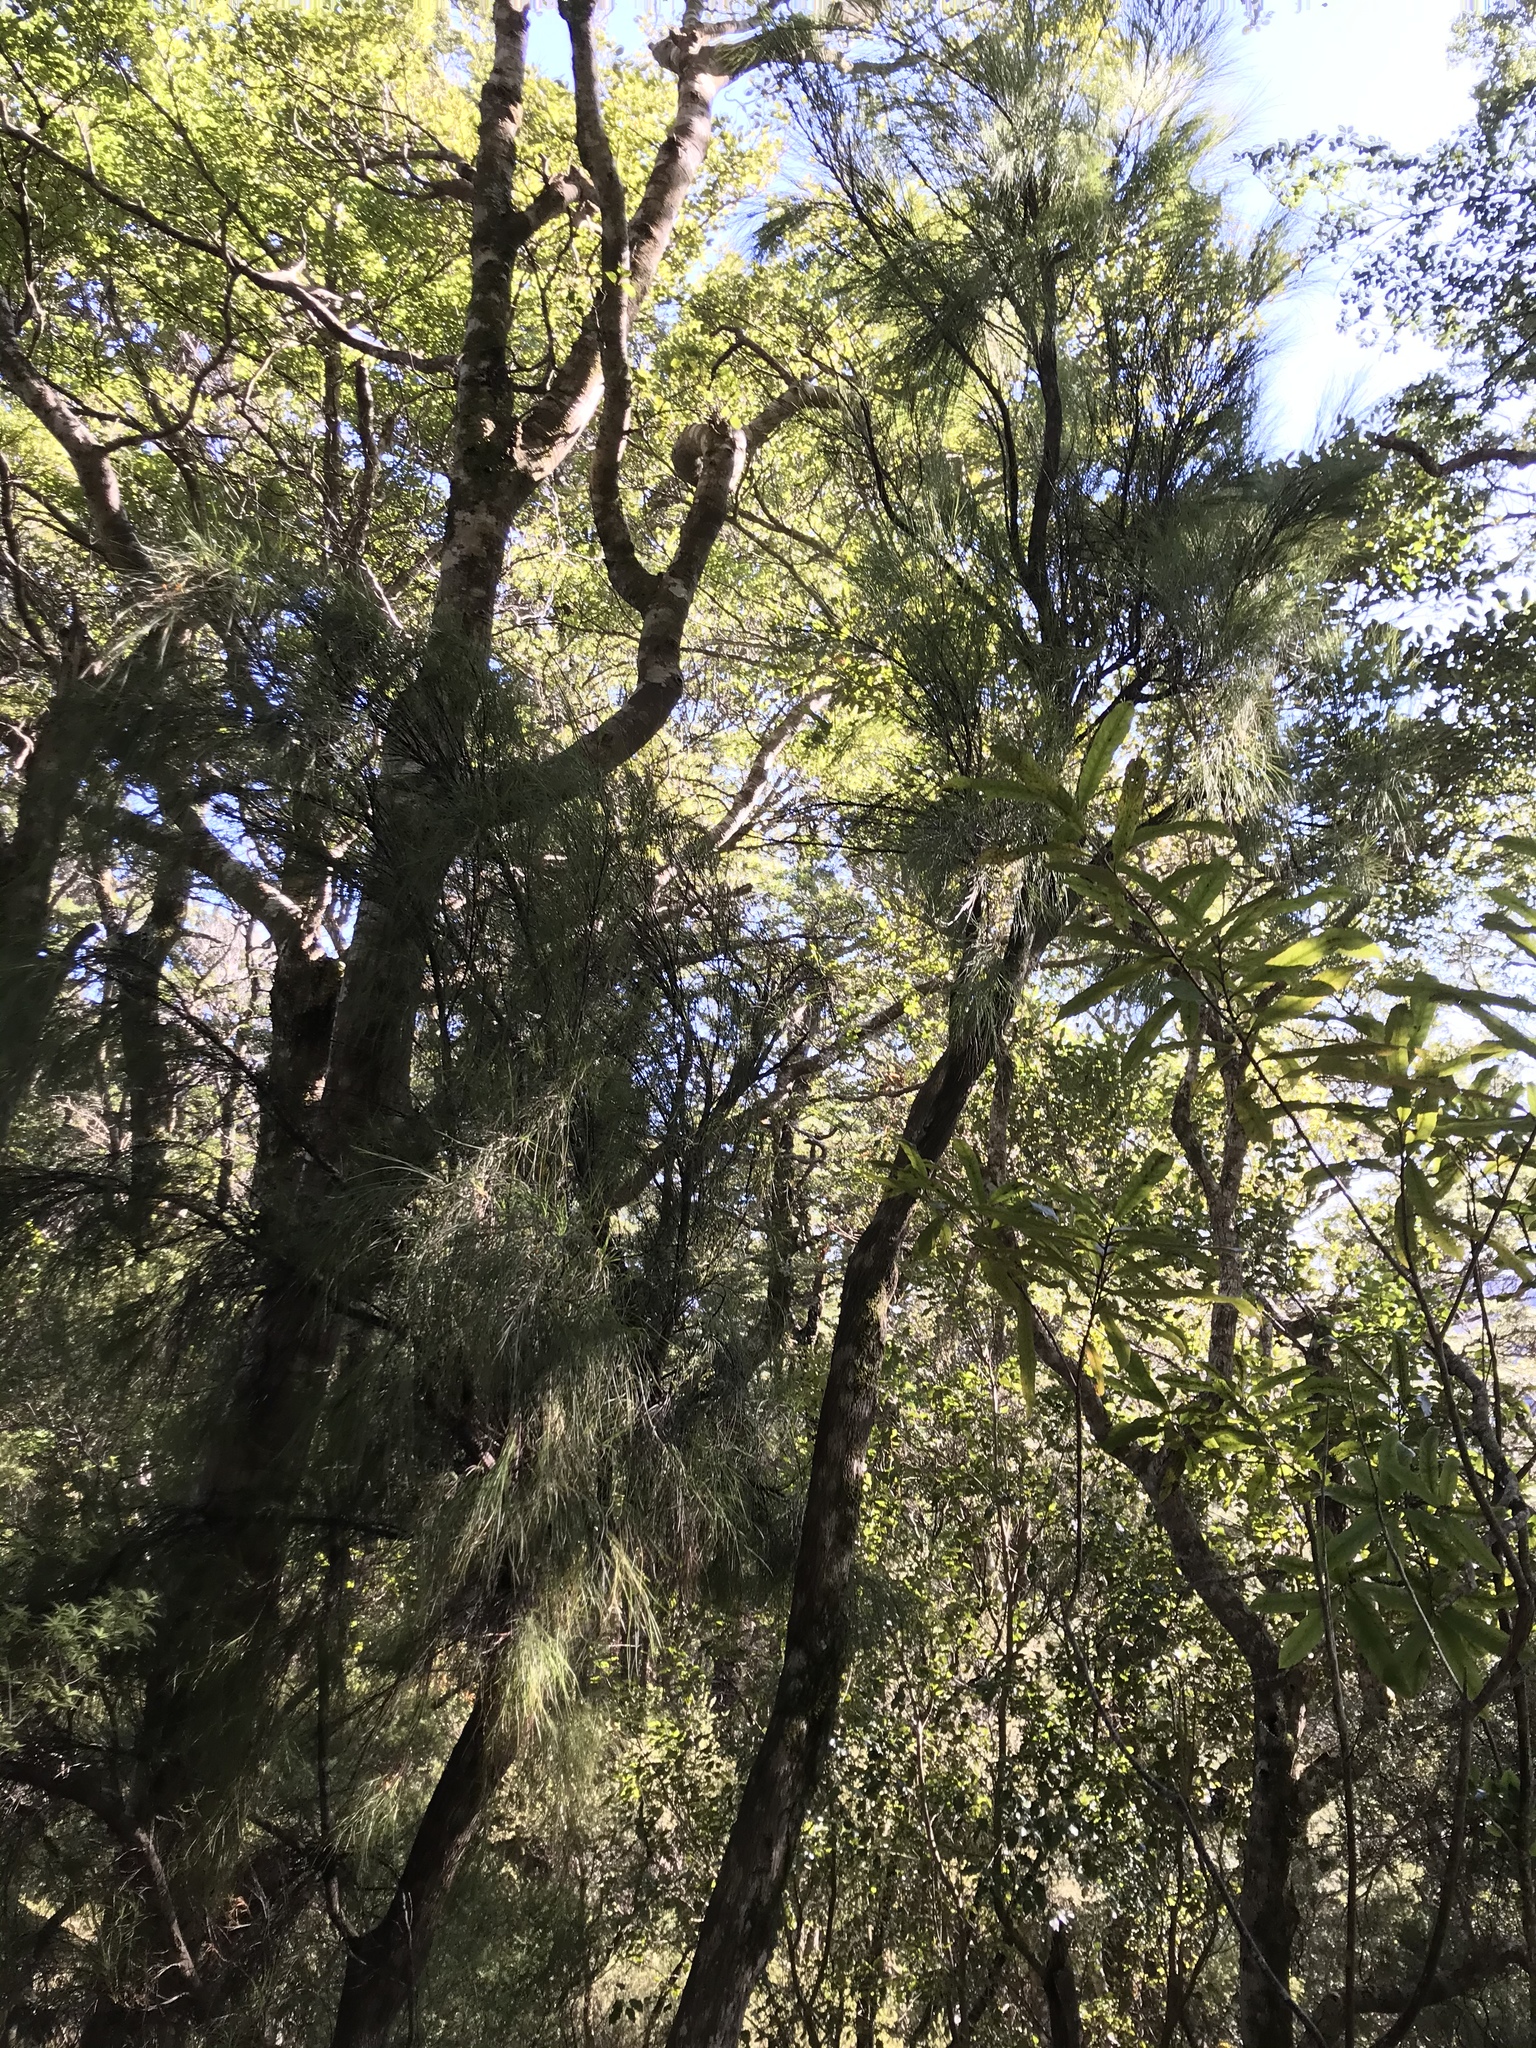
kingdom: Plantae
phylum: Tracheophyta
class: Magnoliopsida
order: Ericales
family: Ericaceae
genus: Dracophyllum
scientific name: Dracophyllum filifolium
